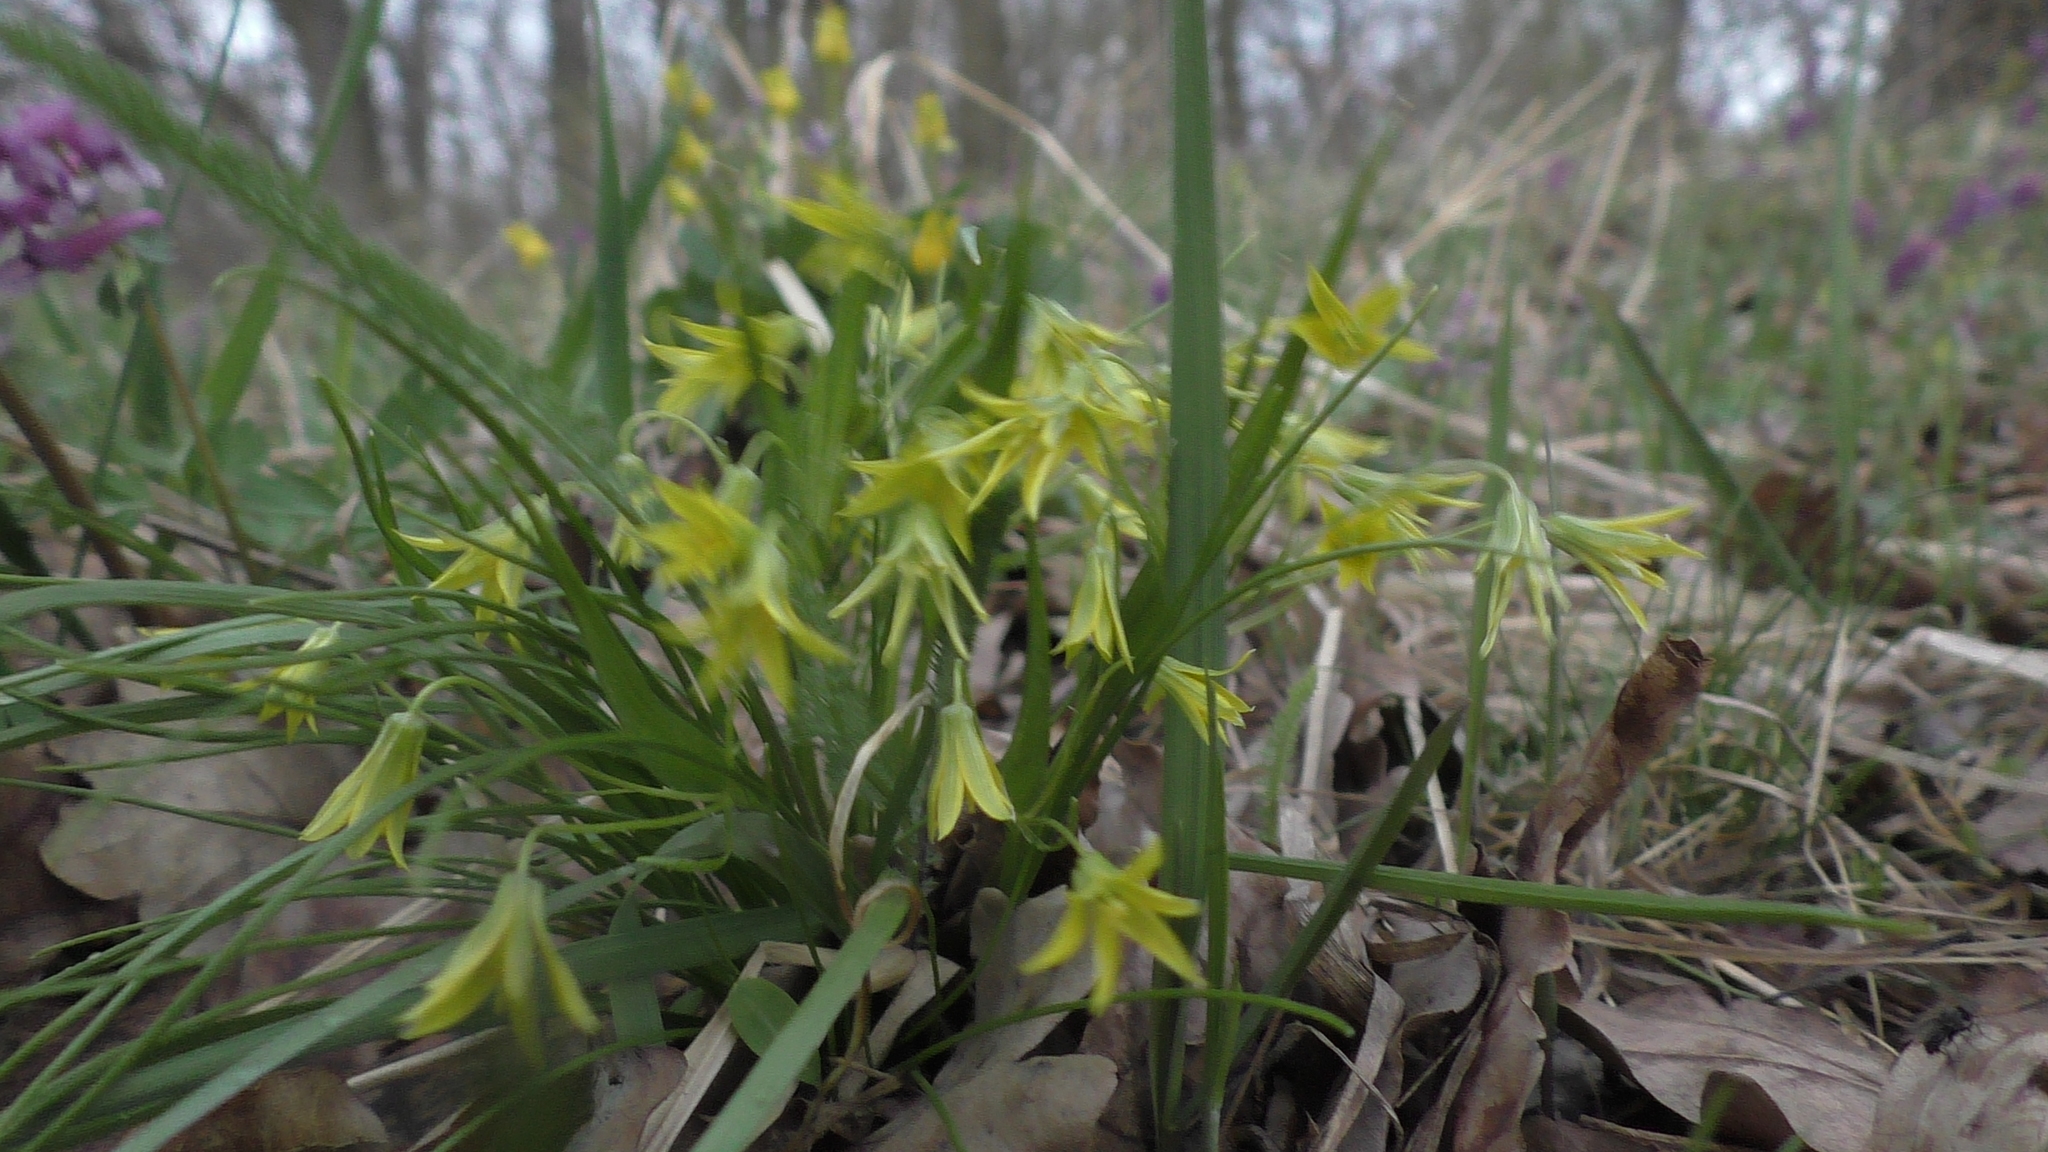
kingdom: Plantae
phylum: Tracheophyta
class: Liliopsida
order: Liliales
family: Liliaceae
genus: Gagea
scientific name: Gagea minima
